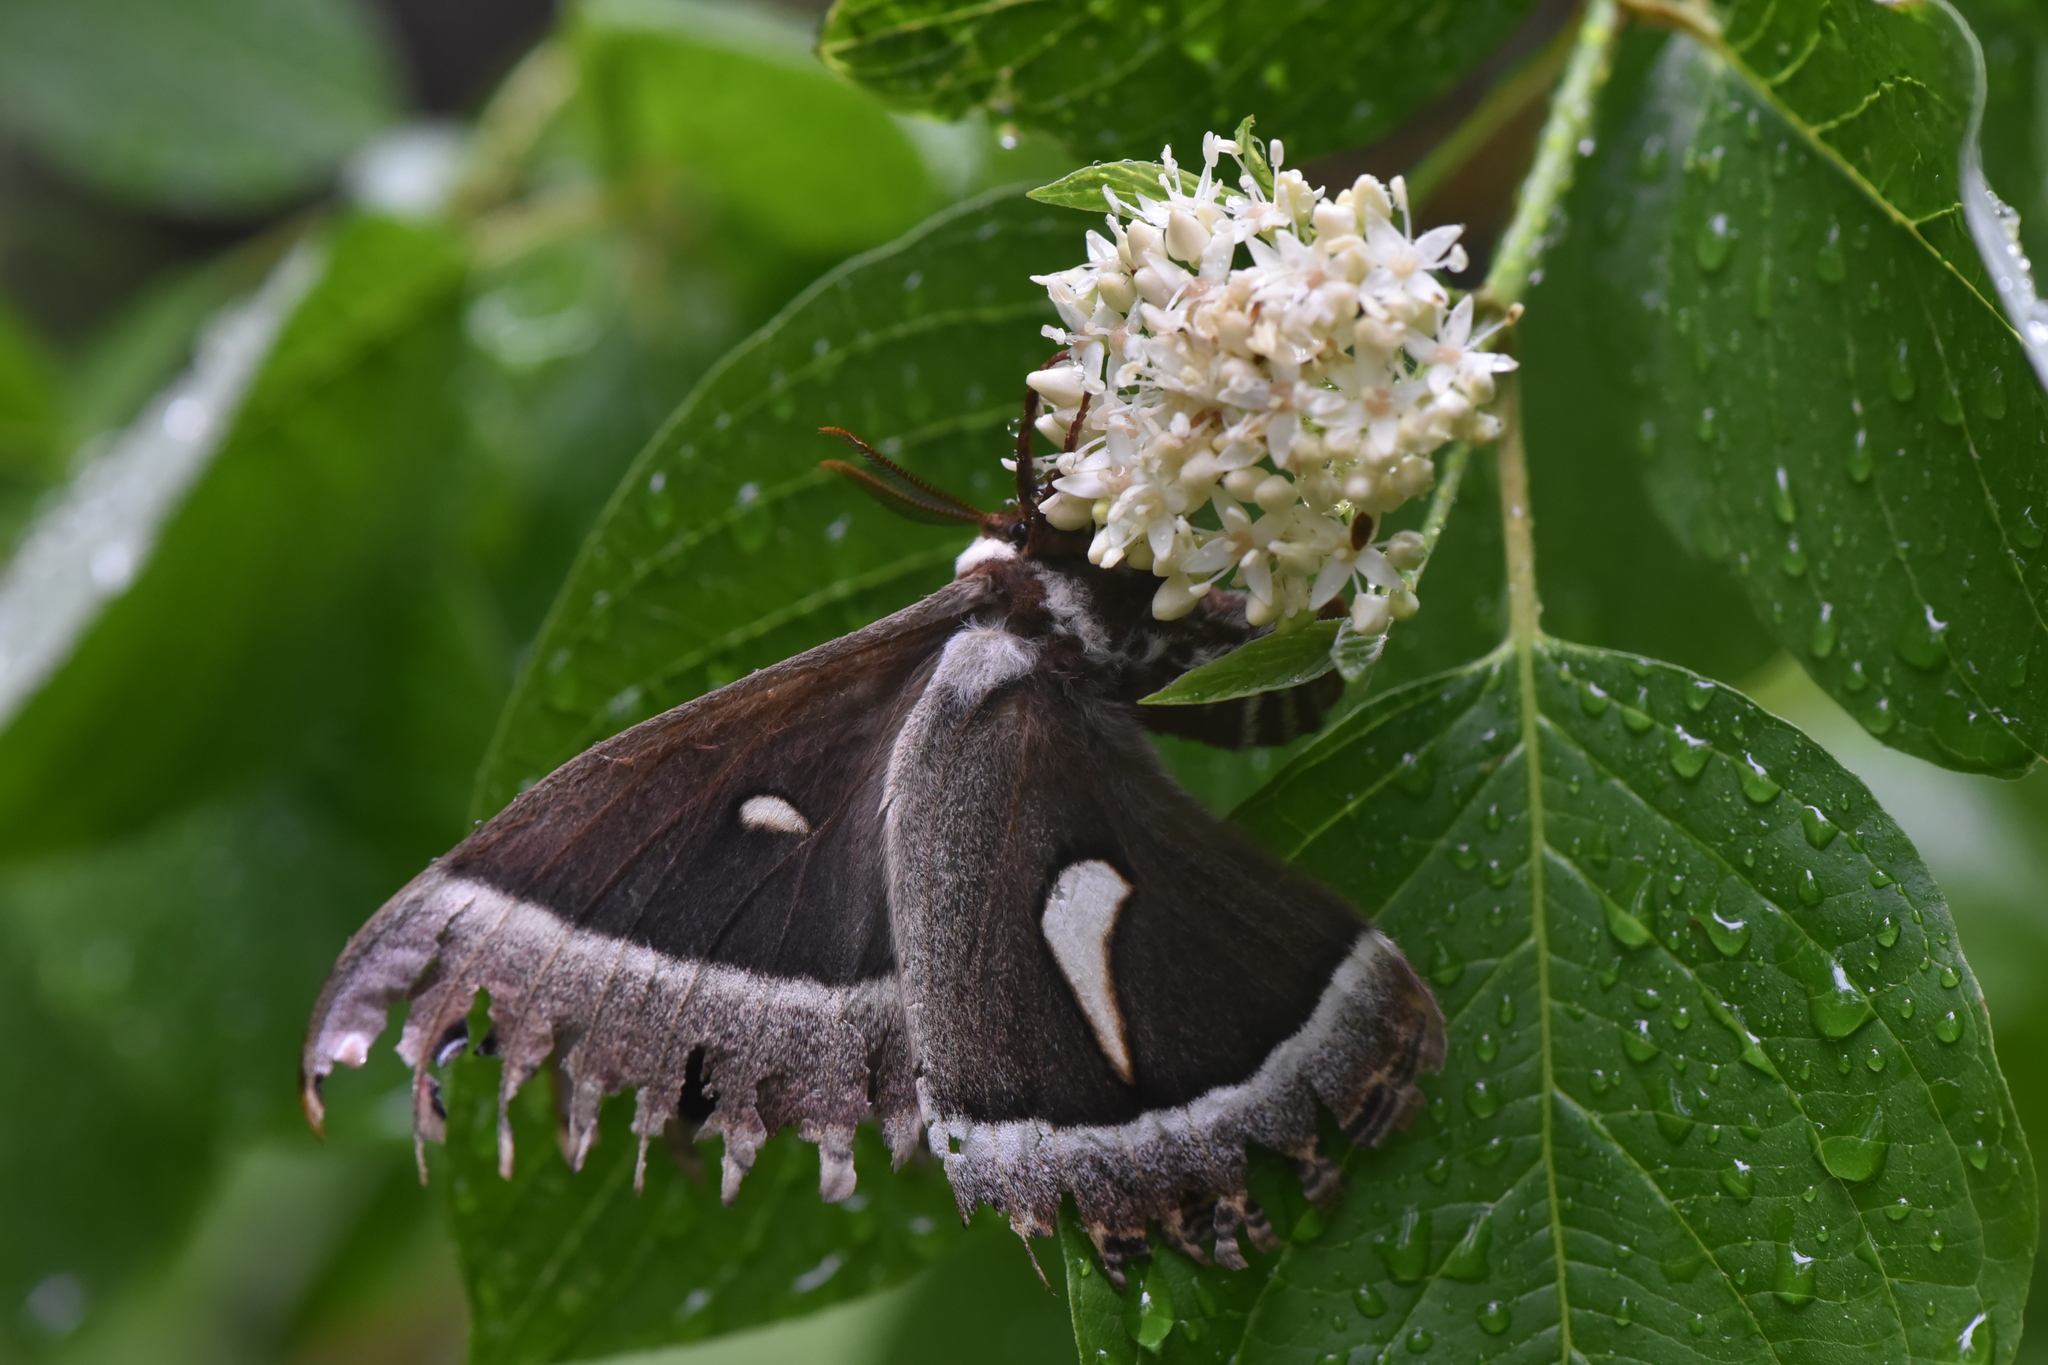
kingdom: Animalia
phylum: Arthropoda
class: Insecta
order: Lepidoptera
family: Saturniidae
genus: Hyalophora
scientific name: Hyalophora euryalus
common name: Ceanothus silkmoth
